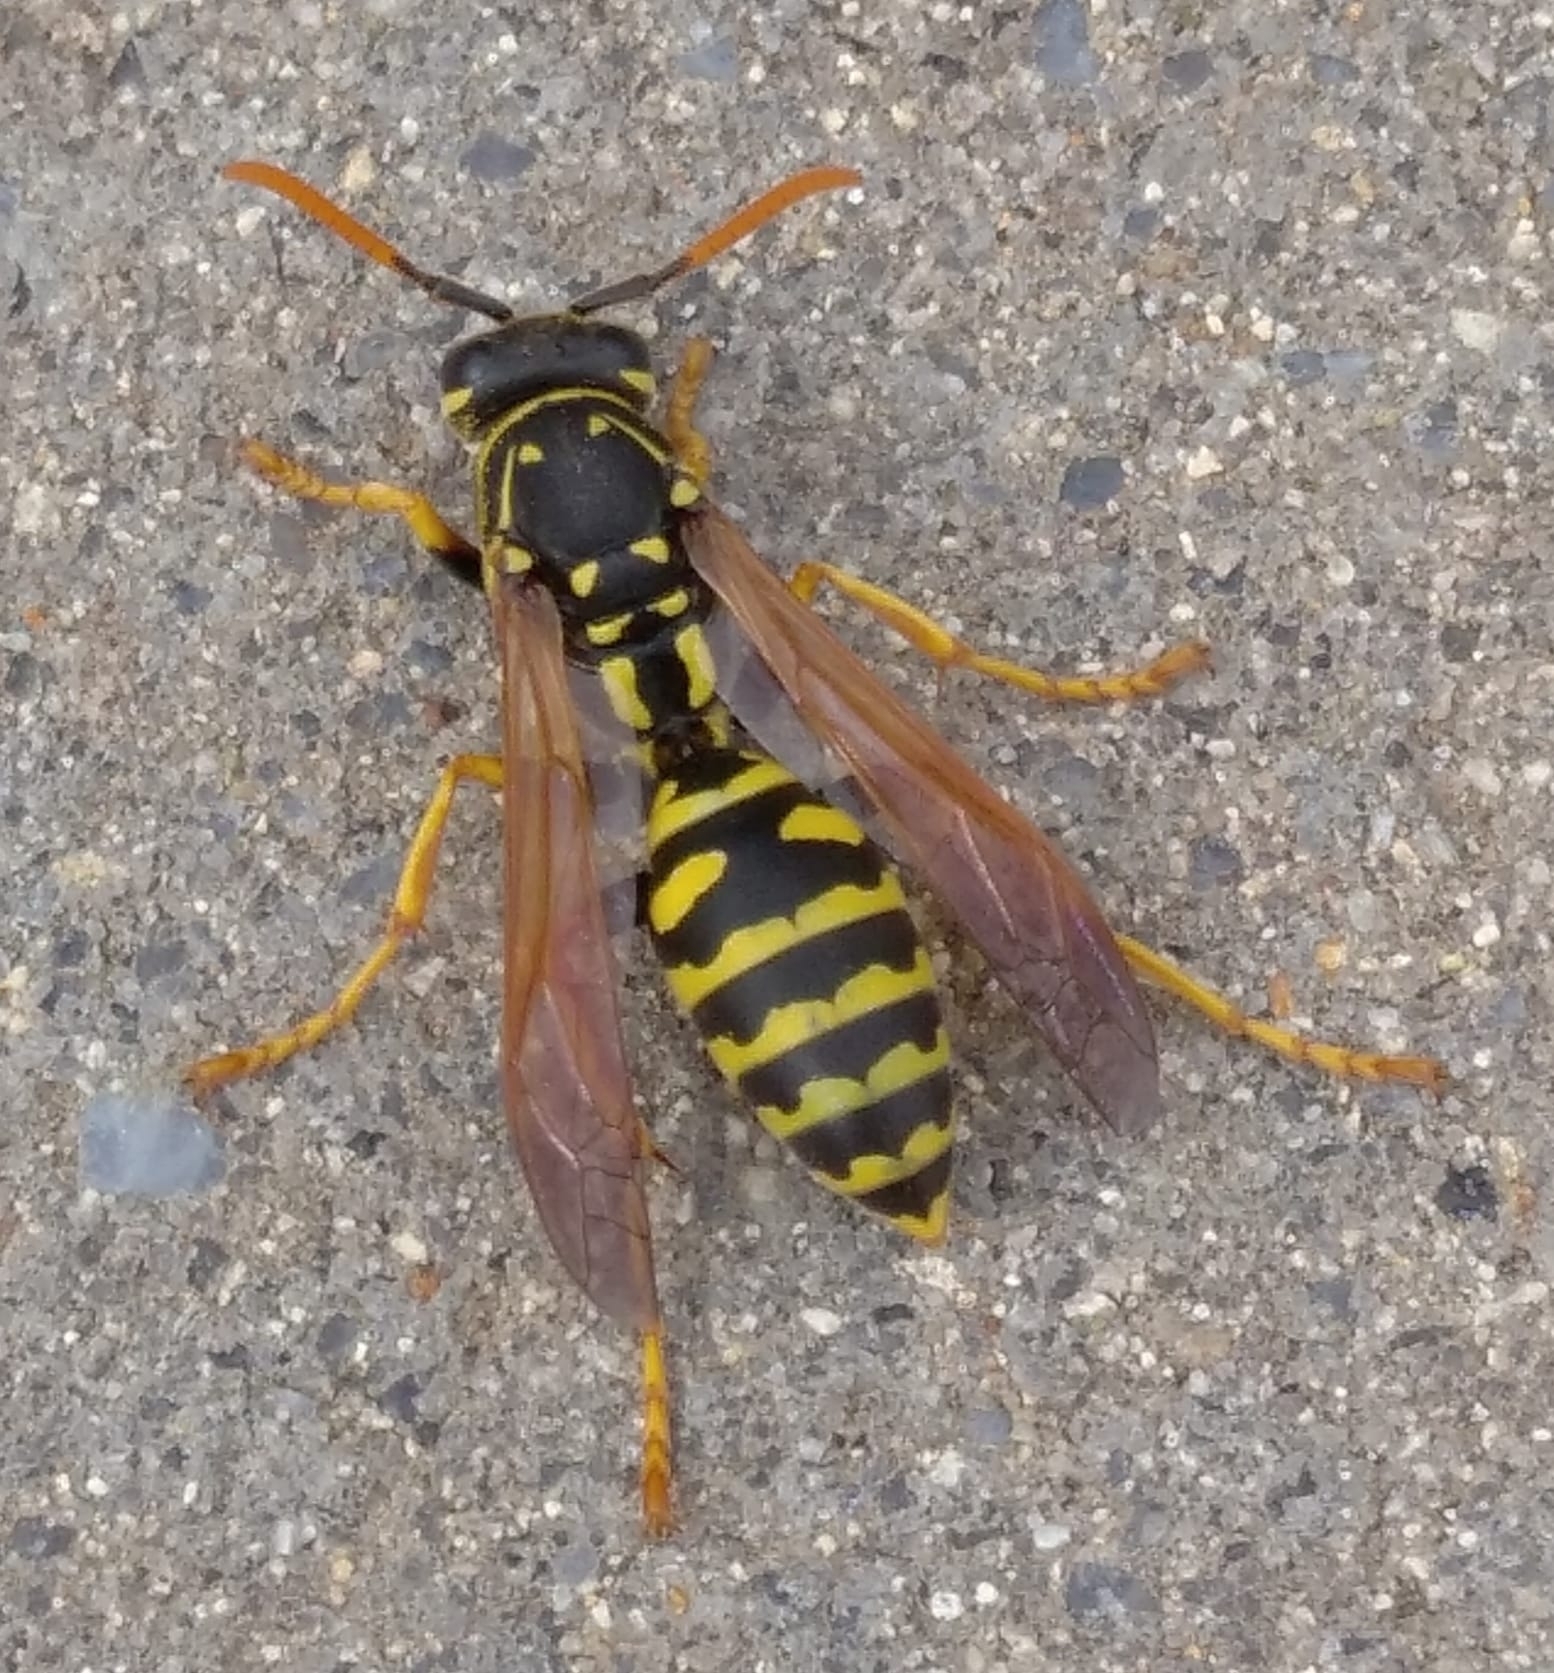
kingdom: Animalia
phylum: Arthropoda
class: Insecta
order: Hymenoptera
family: Eumenidae
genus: Polistes
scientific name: Polistes dominula
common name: Paper wasp
